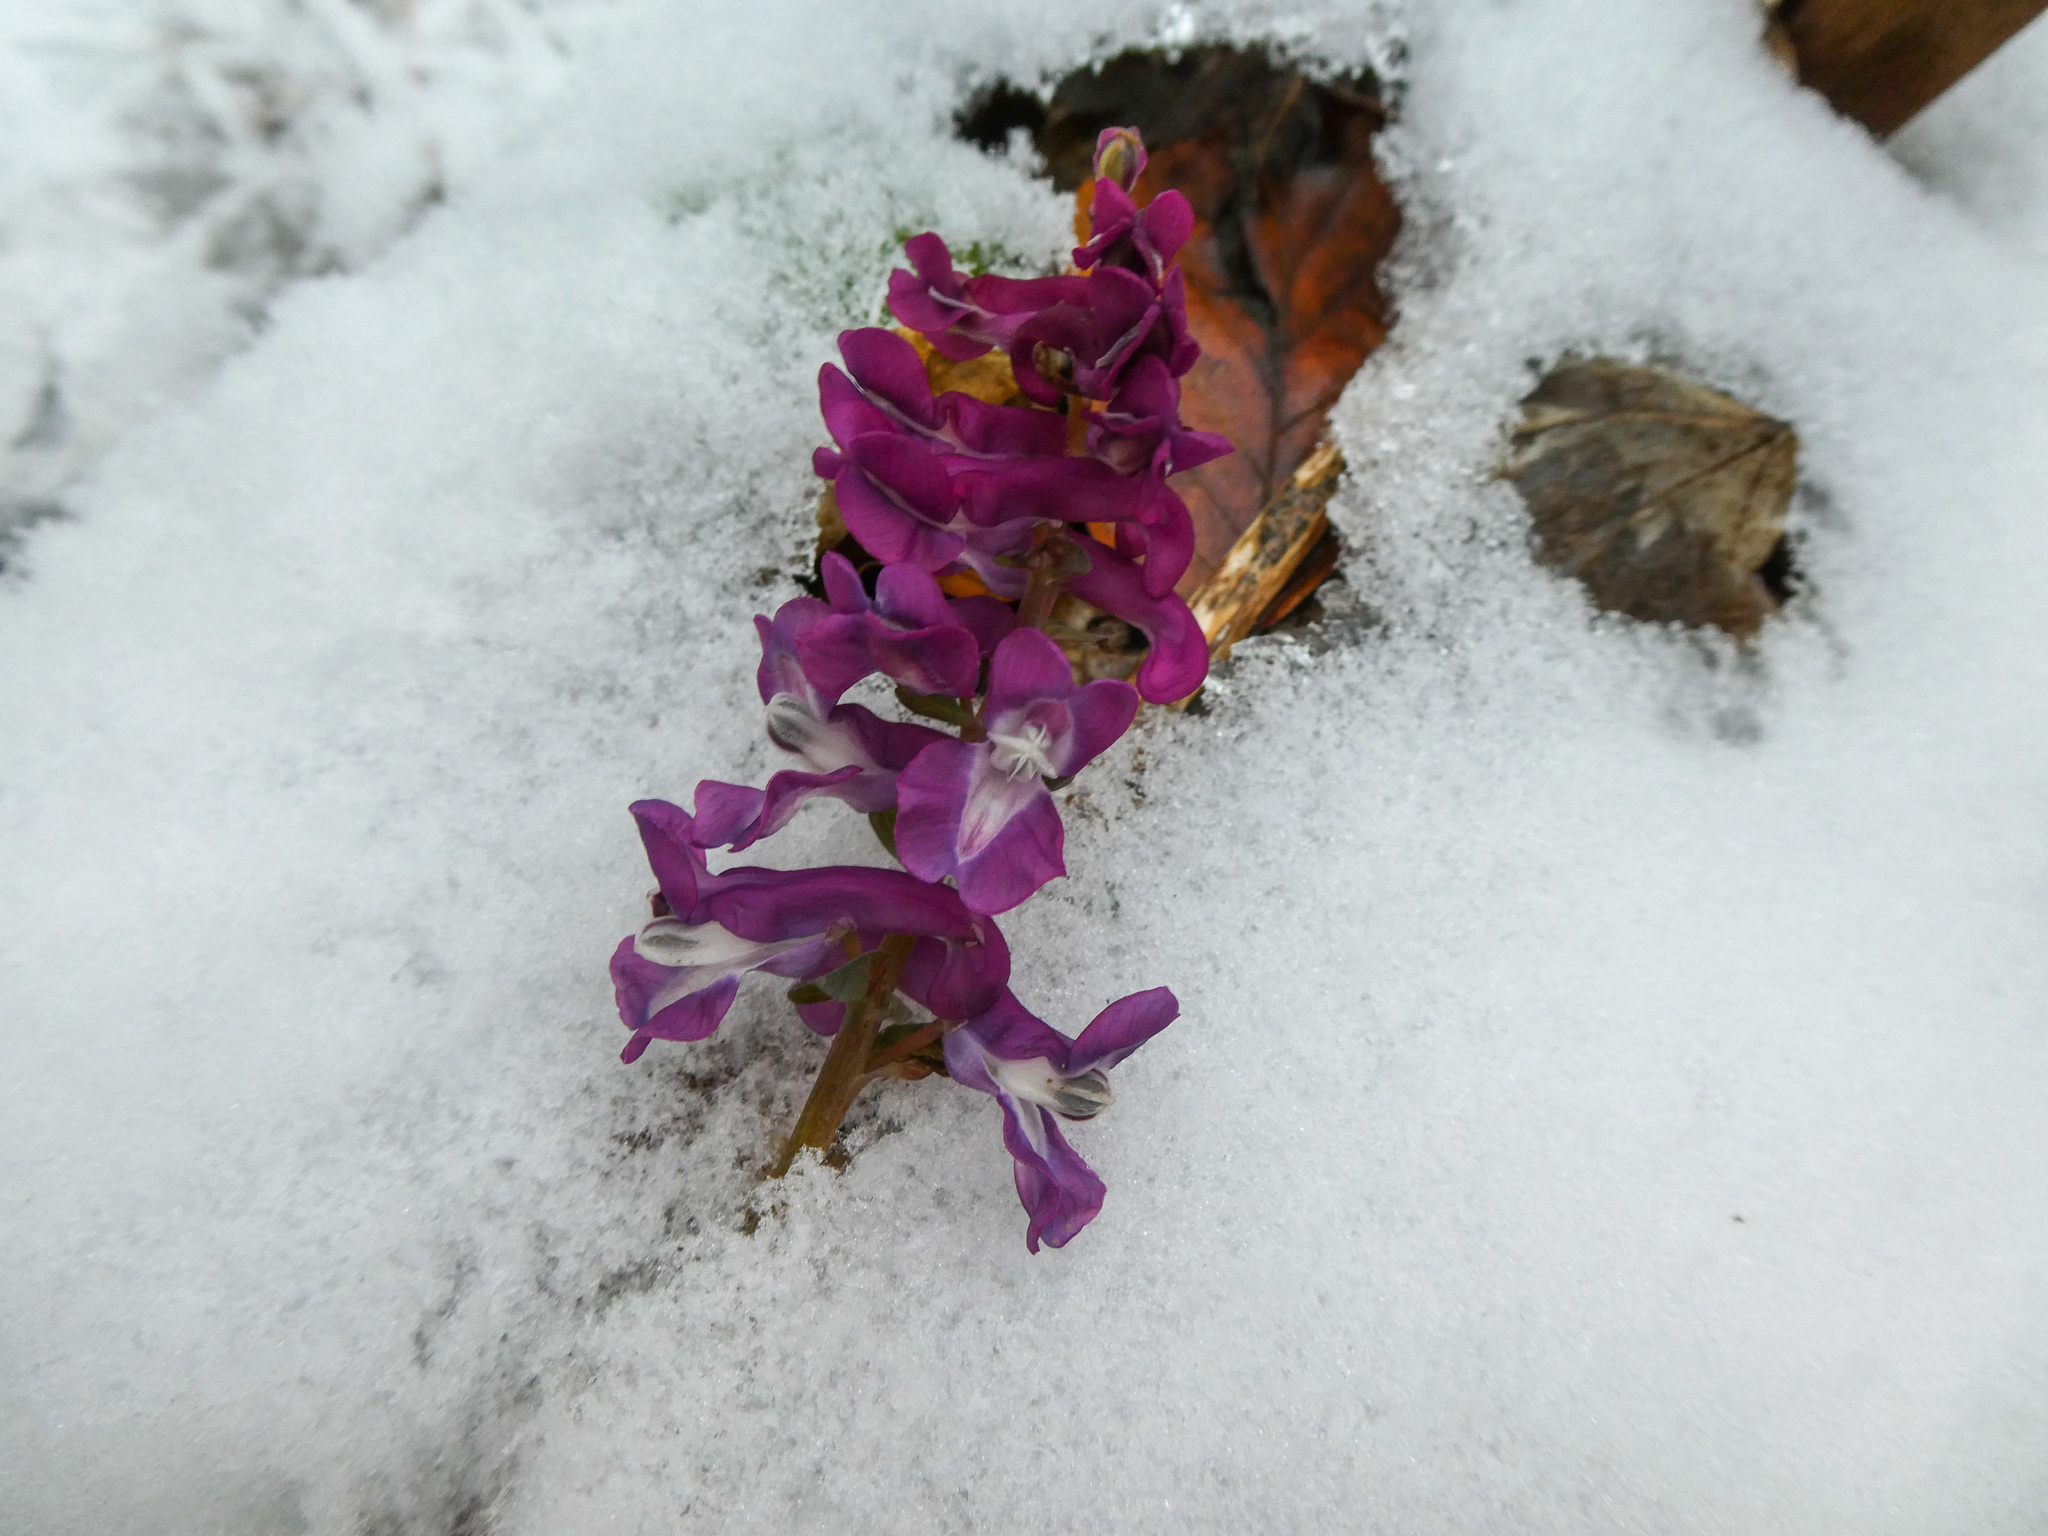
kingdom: Plantae
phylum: Tracheophyta
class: Magnoliopsida
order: Ranunculales
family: Papaveraceae
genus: Corydalis
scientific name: Corydalis cava
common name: Hollowroot
